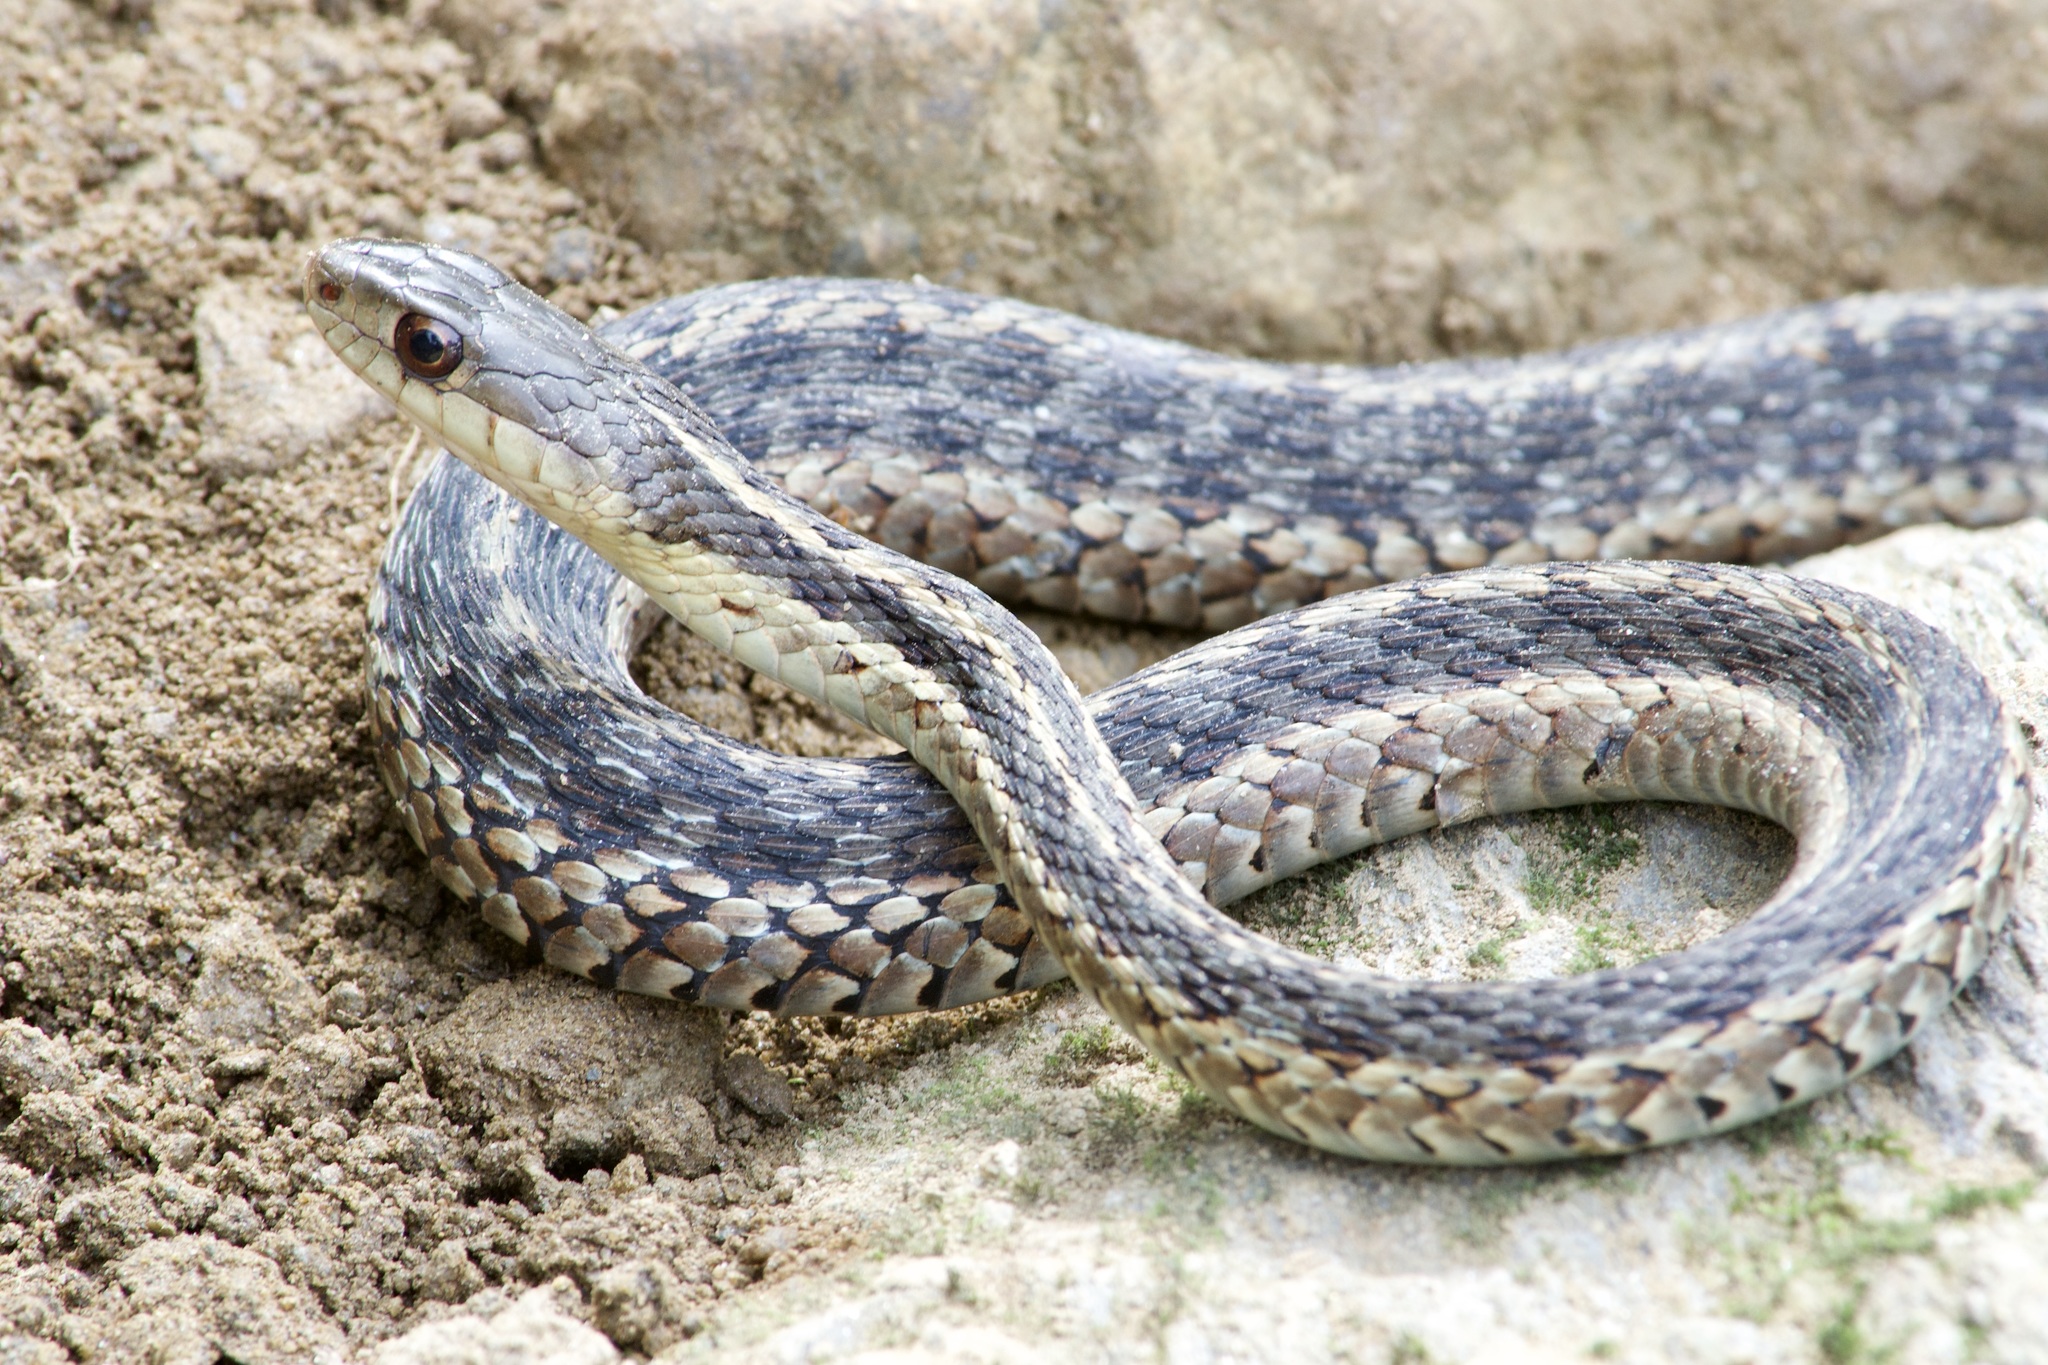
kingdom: Animalia
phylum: Chordata
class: Squamata
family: Colubridae
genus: Thamnophis
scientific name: Thamnophis sirtalis
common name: Common garter snake
